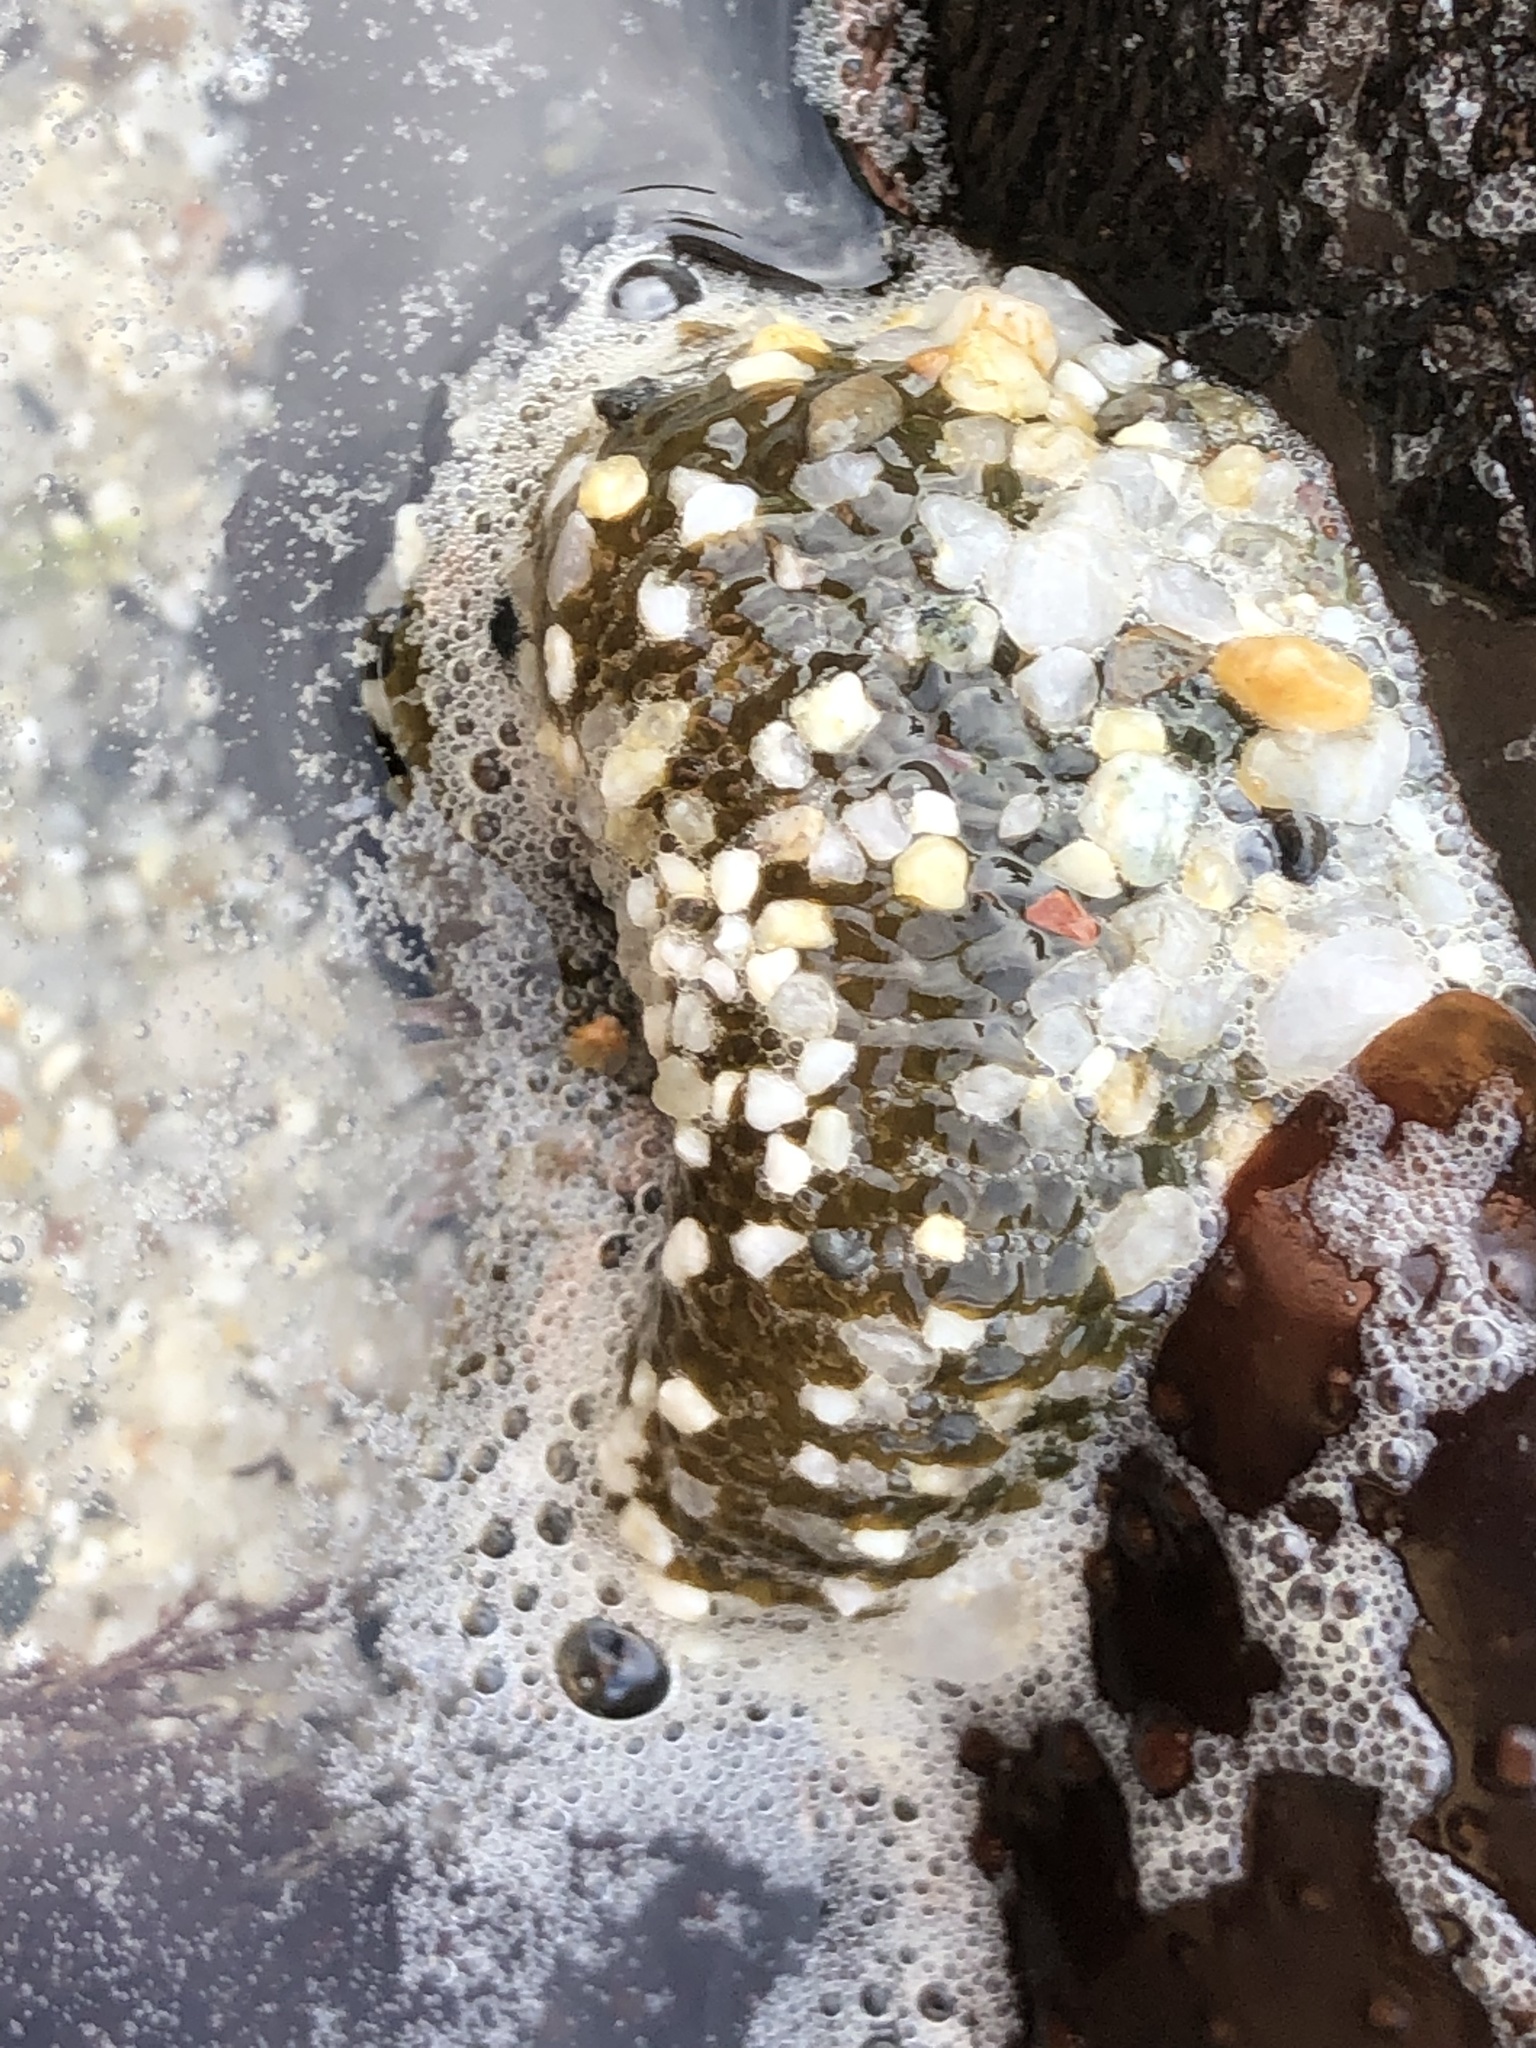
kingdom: Animalia
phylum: Cnidaria
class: Anthozoa
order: Actiniaria
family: Actiniidae
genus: Anthopleura
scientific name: Anthopleura elegantissima
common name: Clonal anemone
